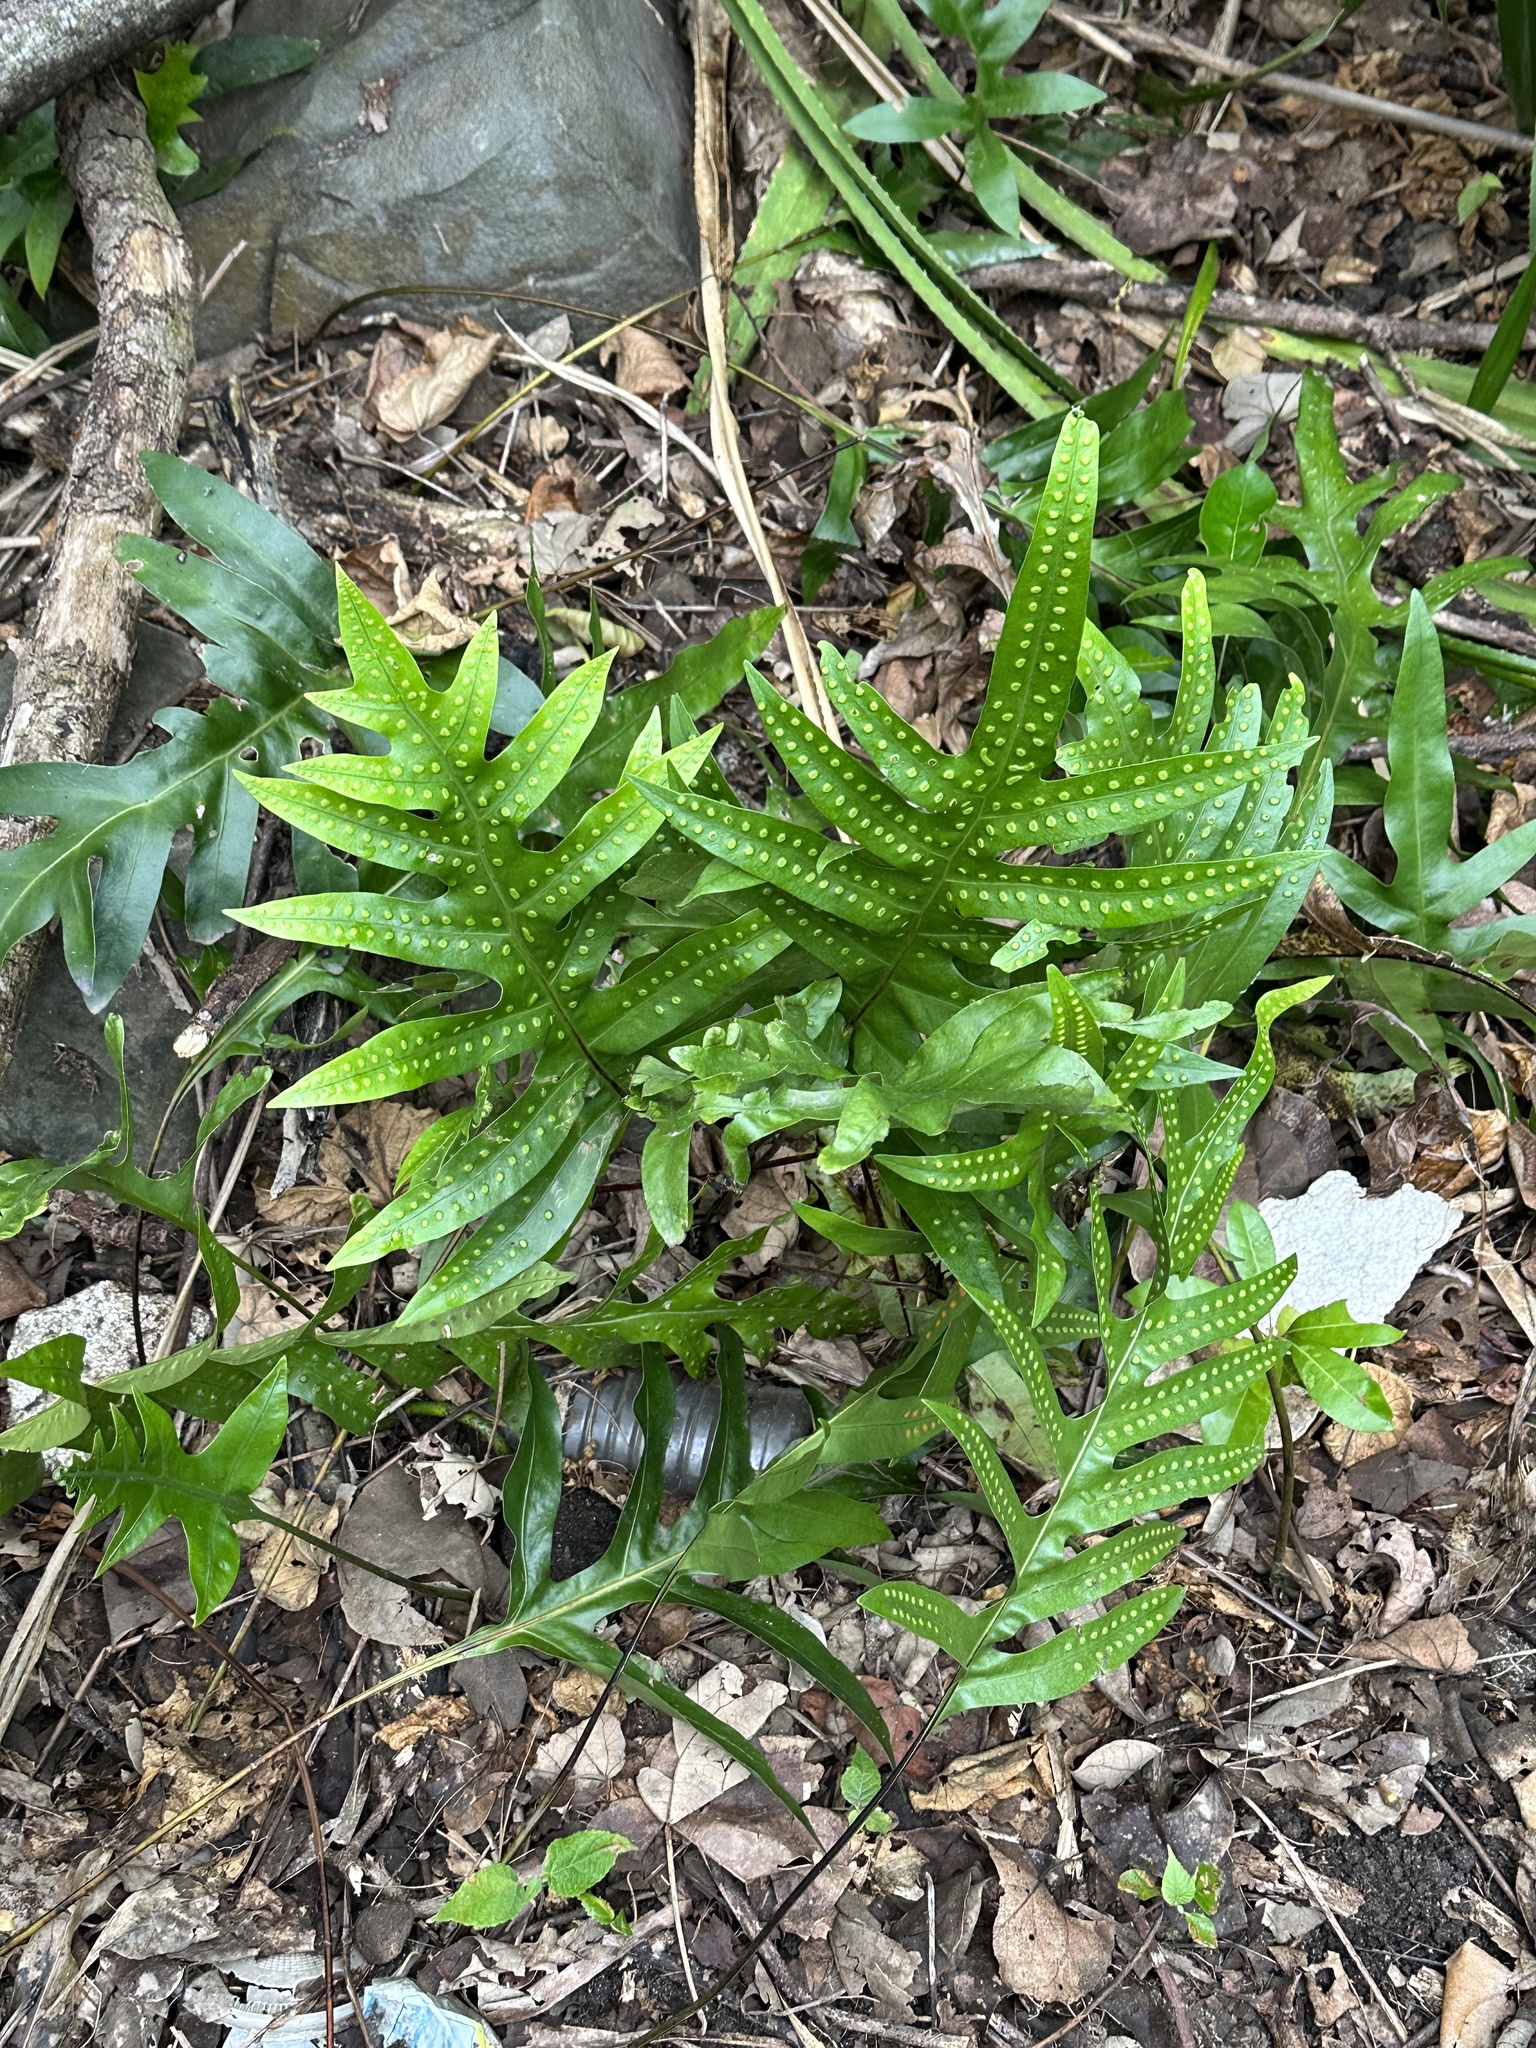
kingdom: Plantae
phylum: Tracheophyta
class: Polypodiopsida
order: Polypodiales
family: Polypodiaceae
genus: Microsorum
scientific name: Microsorum scolopendria
